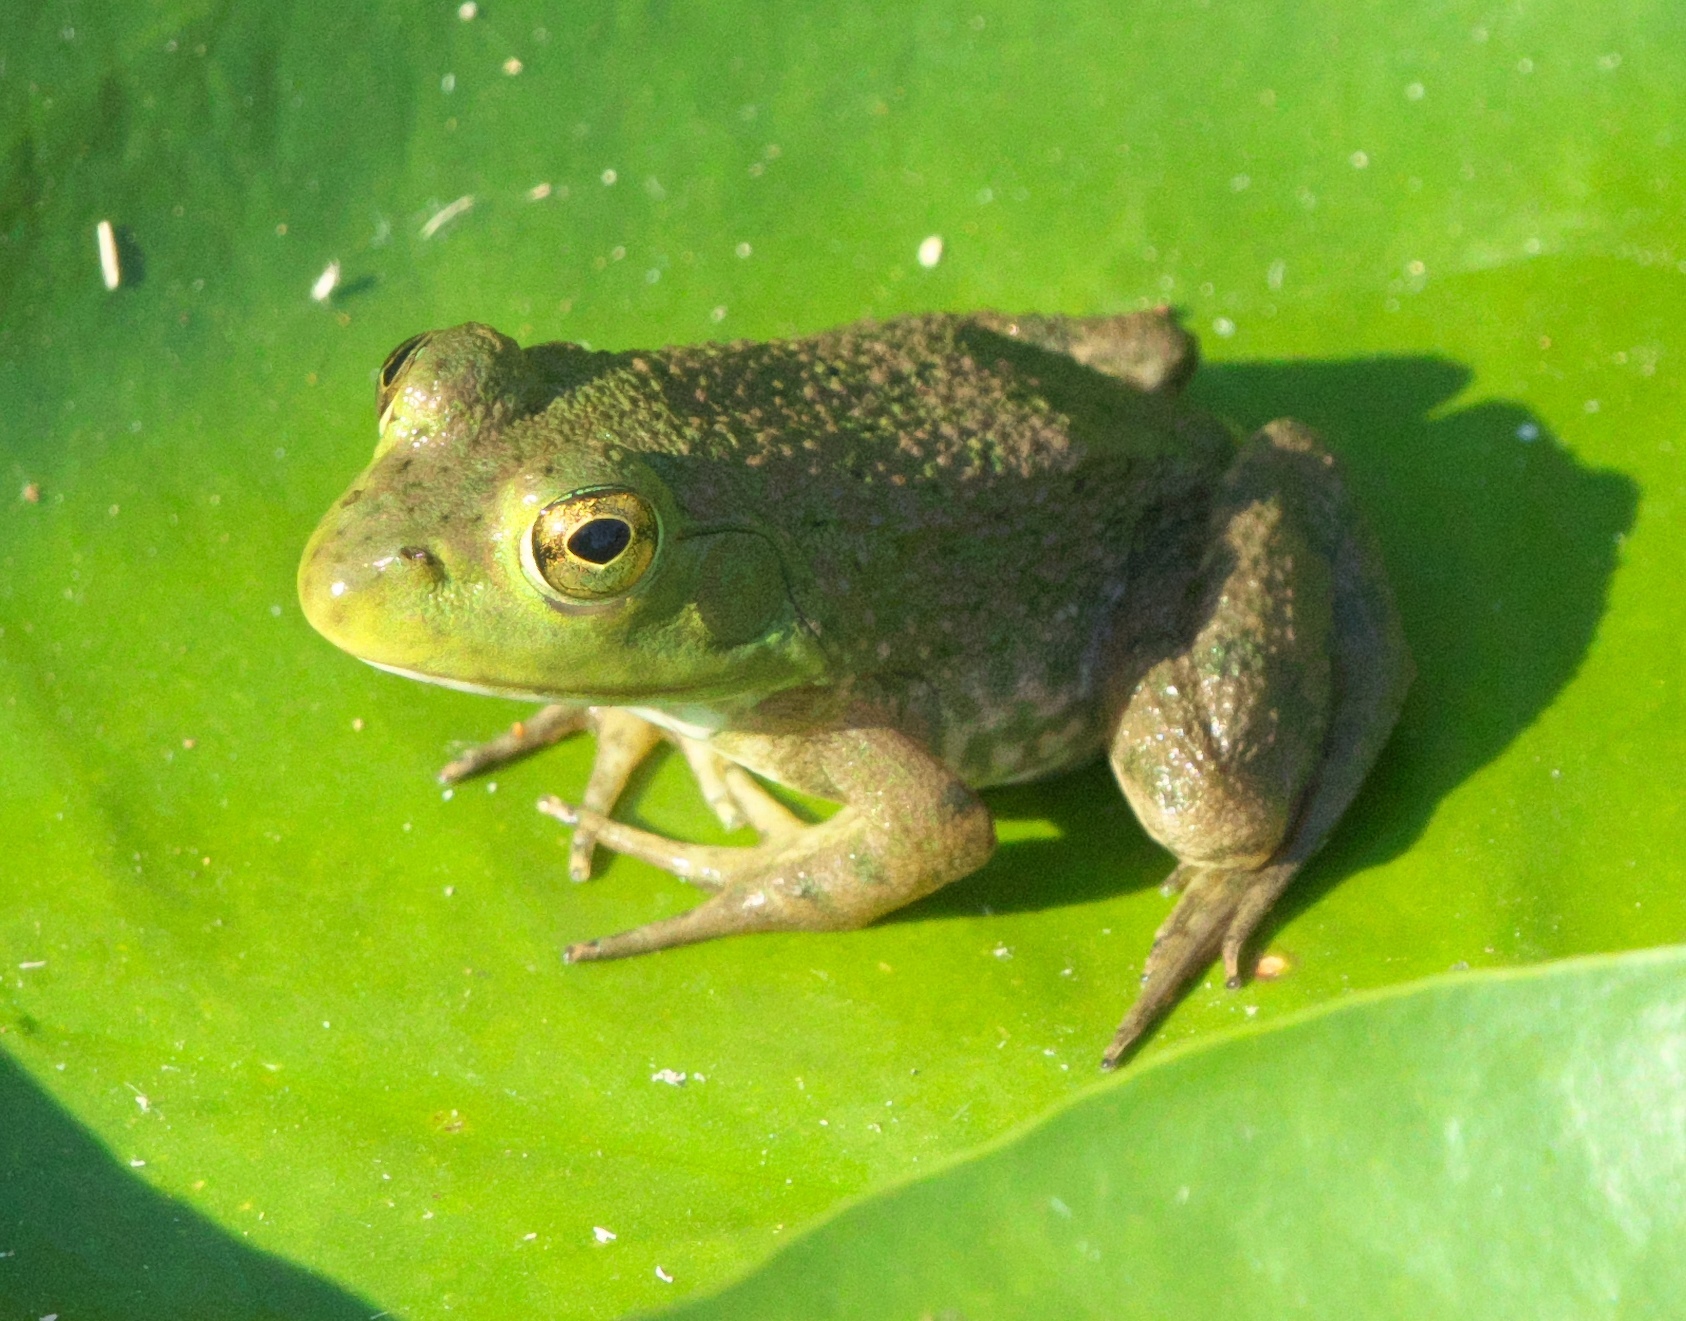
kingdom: Animalia
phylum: Chordata
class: Amphibia
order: Anura
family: Ranidae
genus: Lithobates
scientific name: Lithobates catesbeianus
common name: American bullfrog
